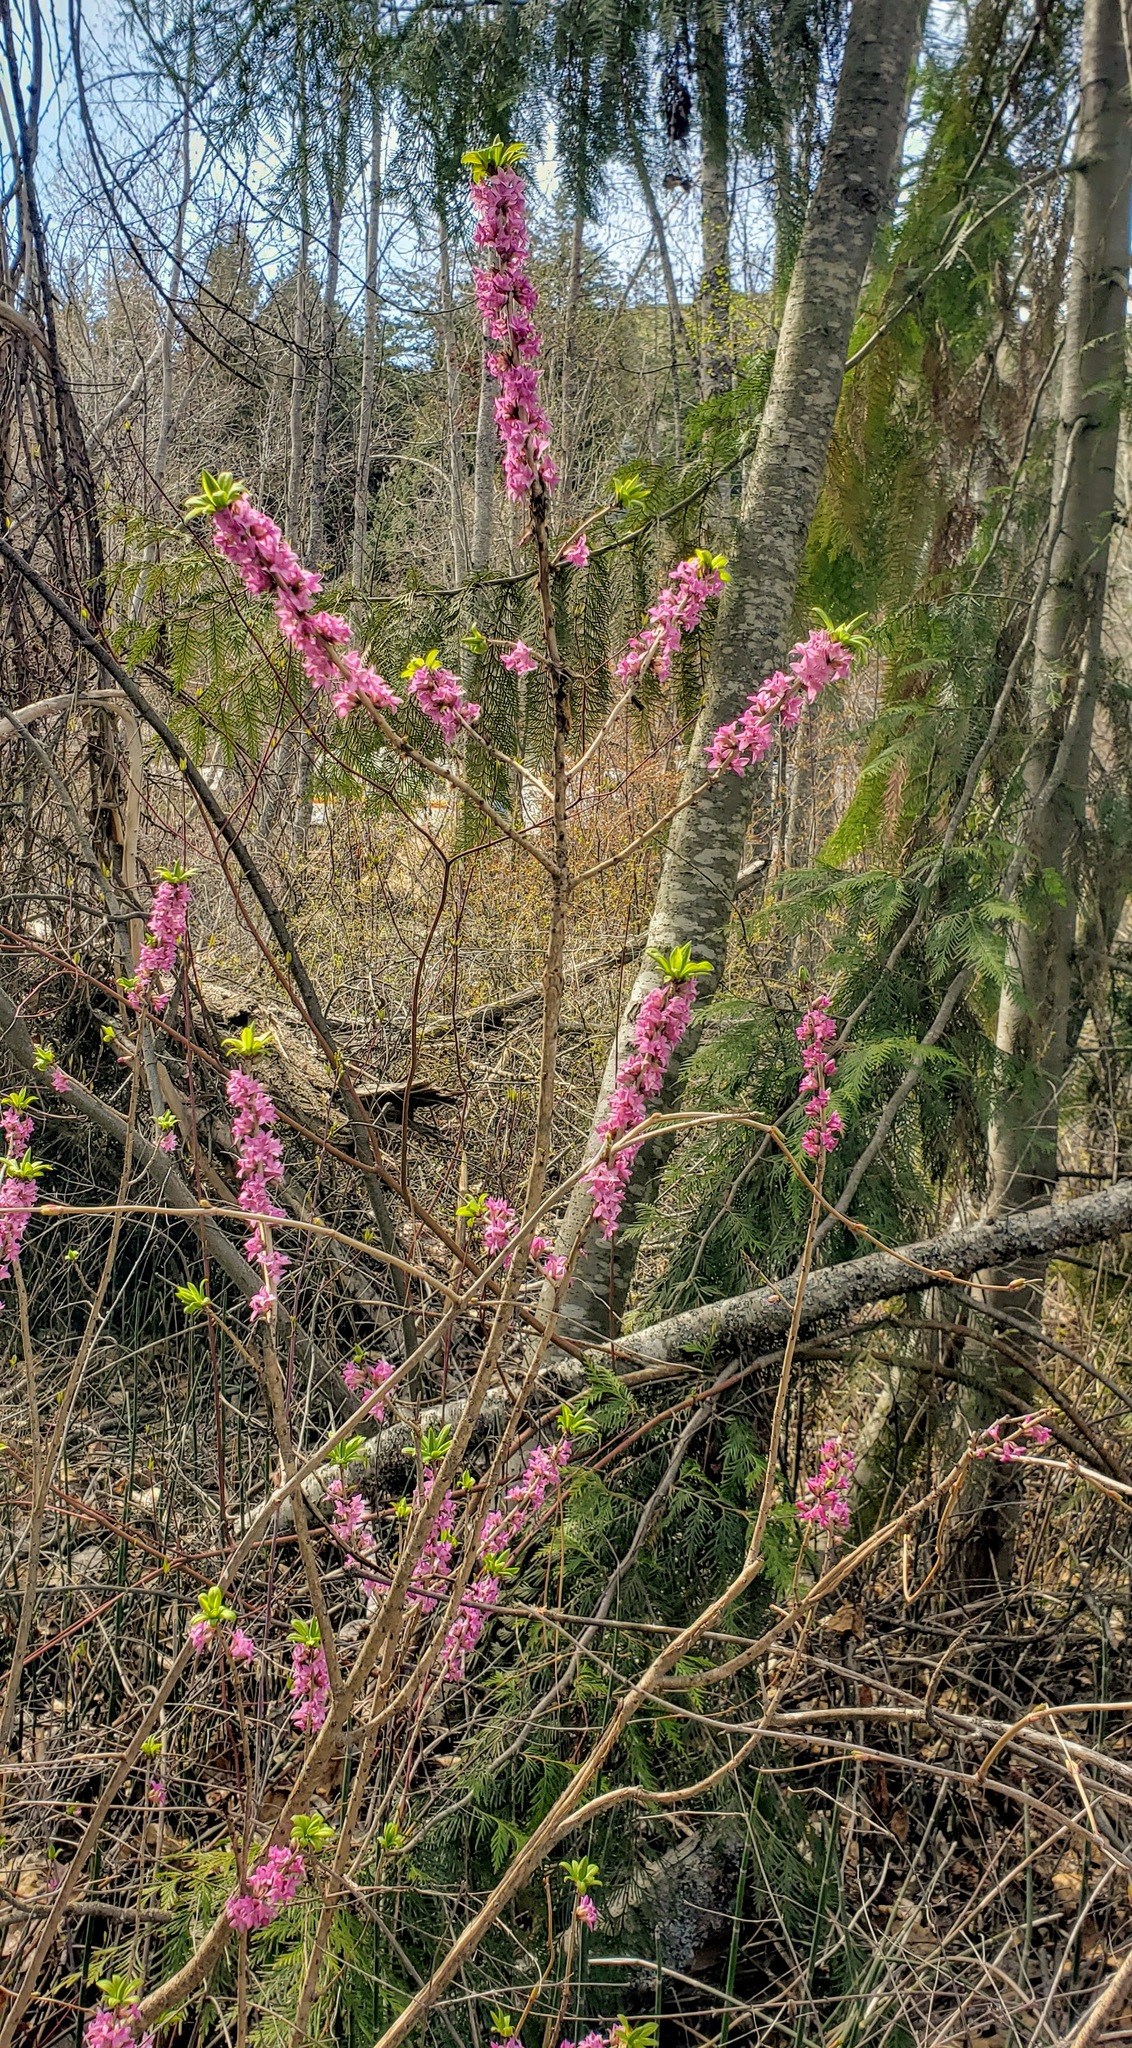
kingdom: Plantae
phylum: Tracheophyta
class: Magnoliopsida
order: Malvales
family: Thymelaeaceae
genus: Daphne
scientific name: Daphne mezereum
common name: Mezereon
